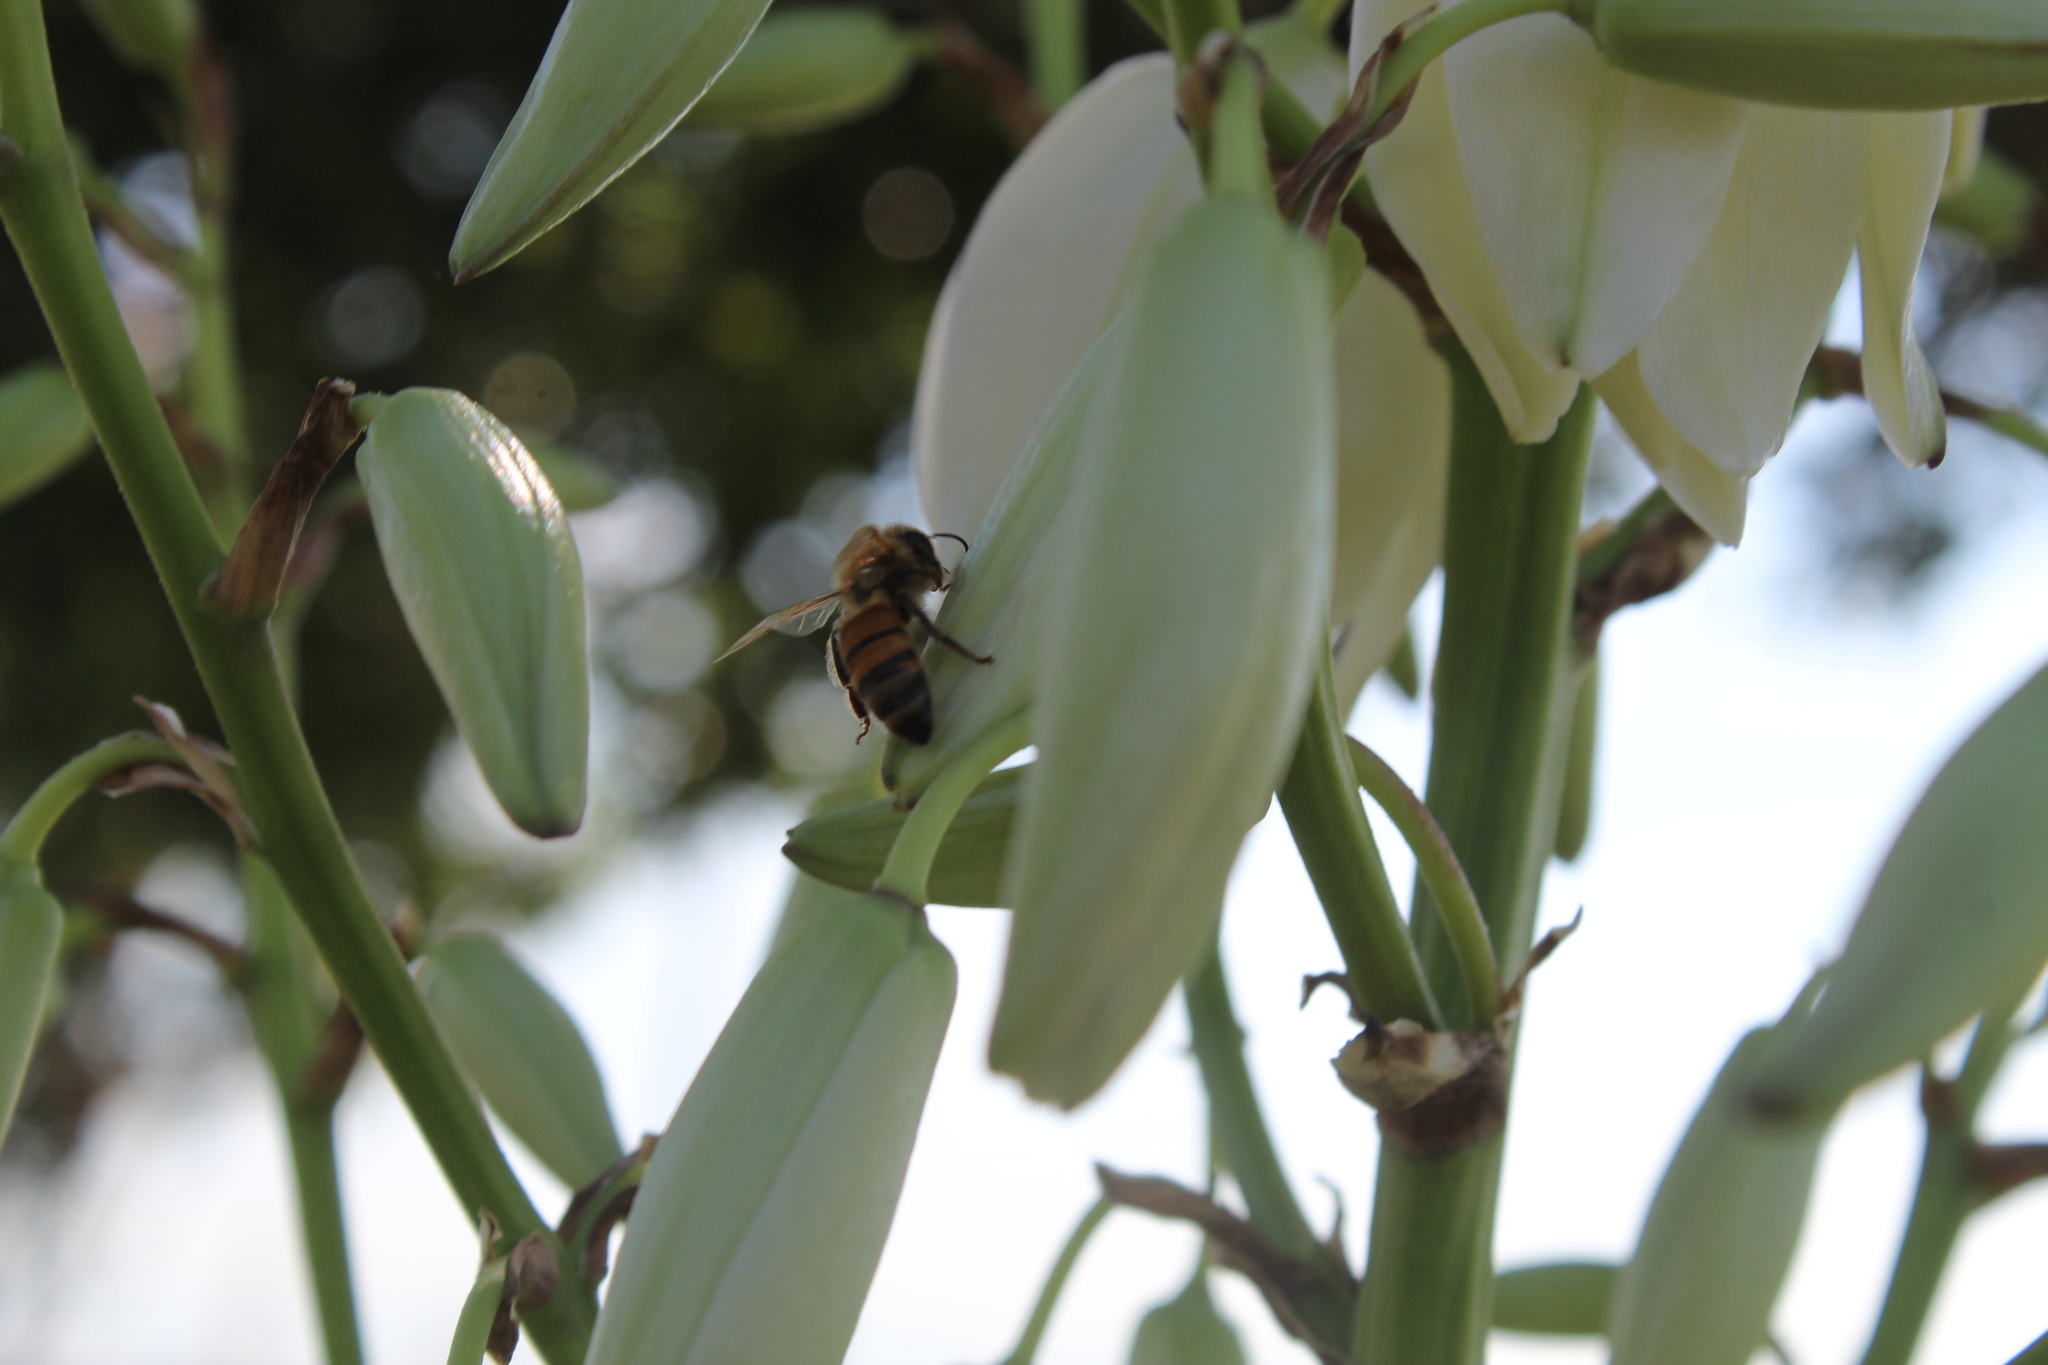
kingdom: Animalia
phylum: Arthropoda
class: Insecta
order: Hymenoptera
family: Apidae
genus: Apis
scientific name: Apis mellifera
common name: Honey bee
